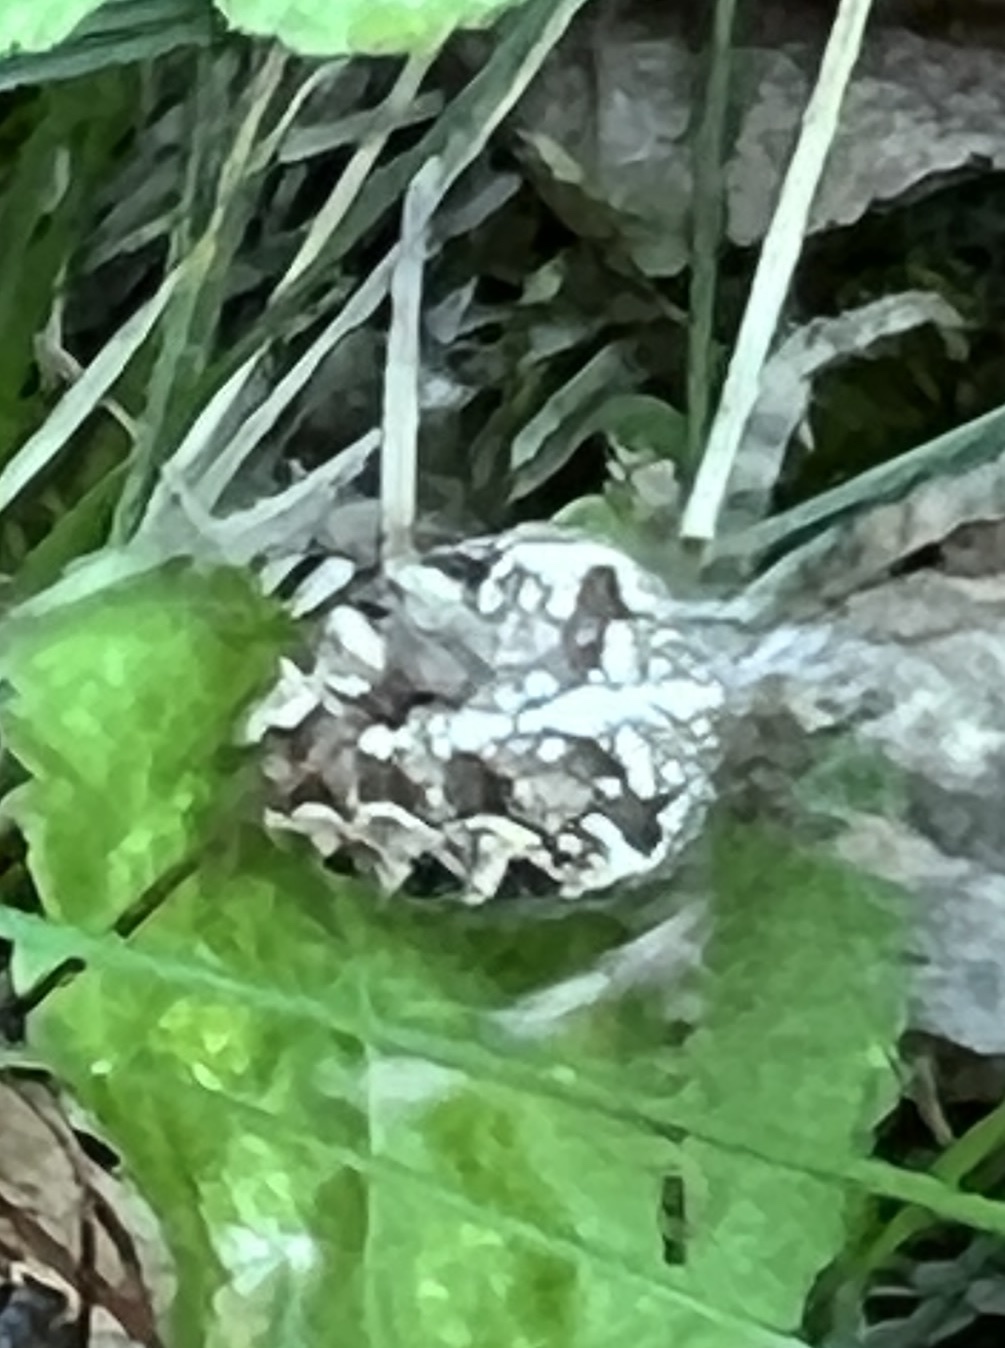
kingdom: Animalia
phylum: Arthropoda
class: Arachnida
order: Araneae
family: Araneidae
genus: Araneus
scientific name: Araneus diadematus
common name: Cross orbweaver
